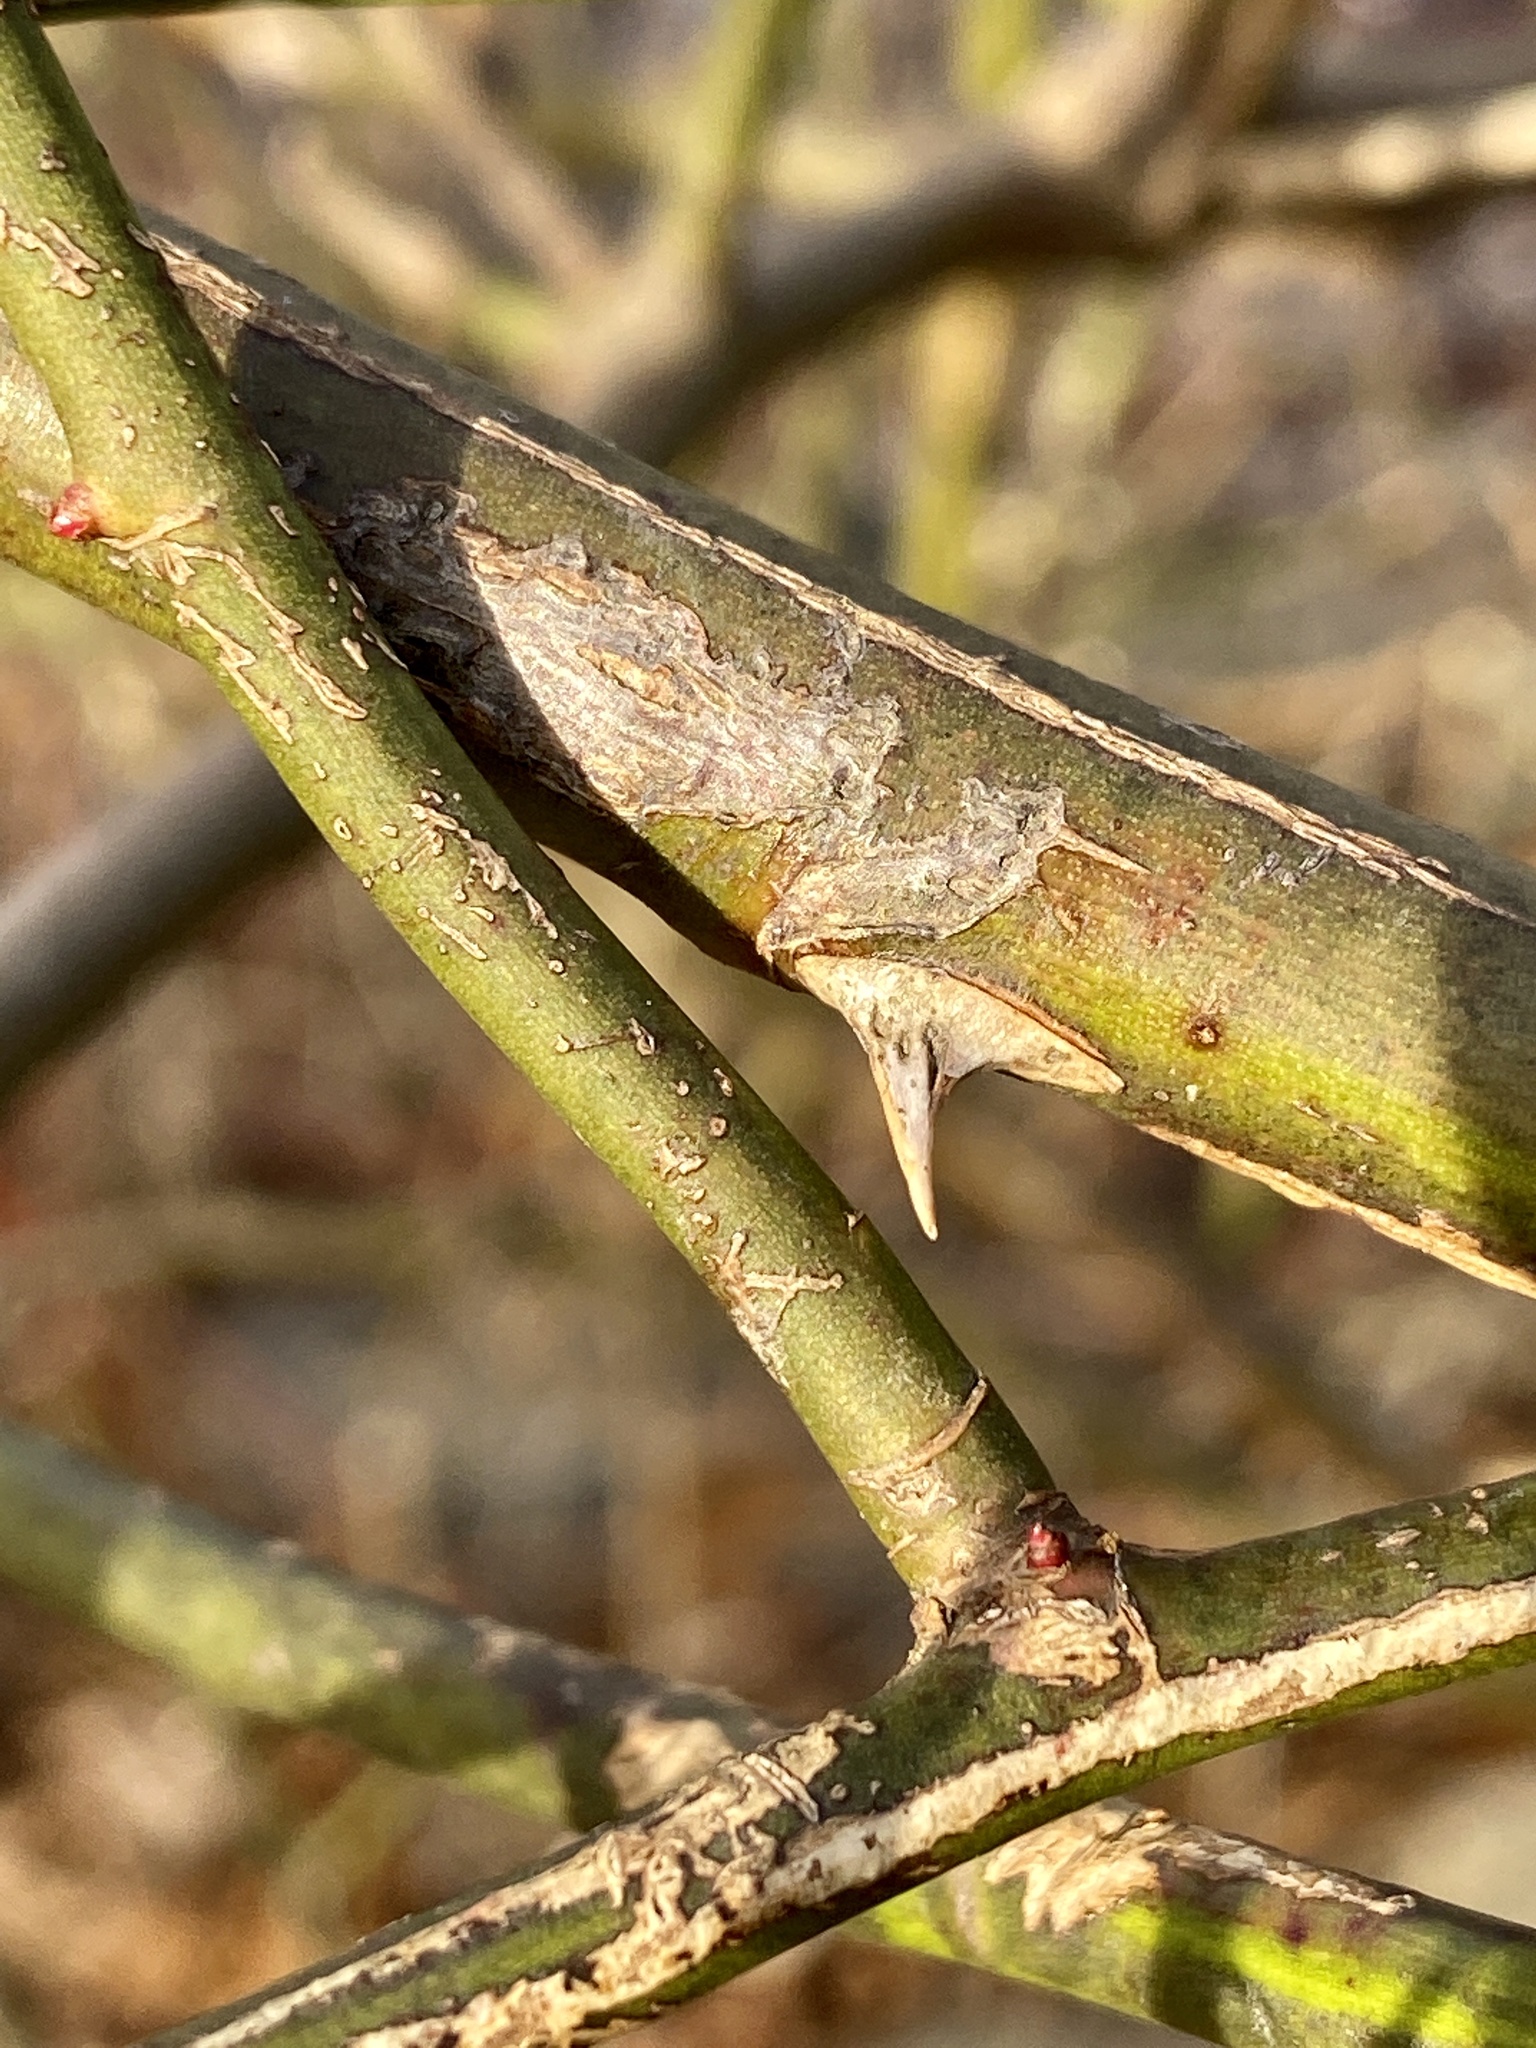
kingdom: Plantae
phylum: Tracheophyta
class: Magnoliopsida
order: Rosales
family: Rosaceae
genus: Rosa
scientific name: Rosa multiflora
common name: Multiflora rose
